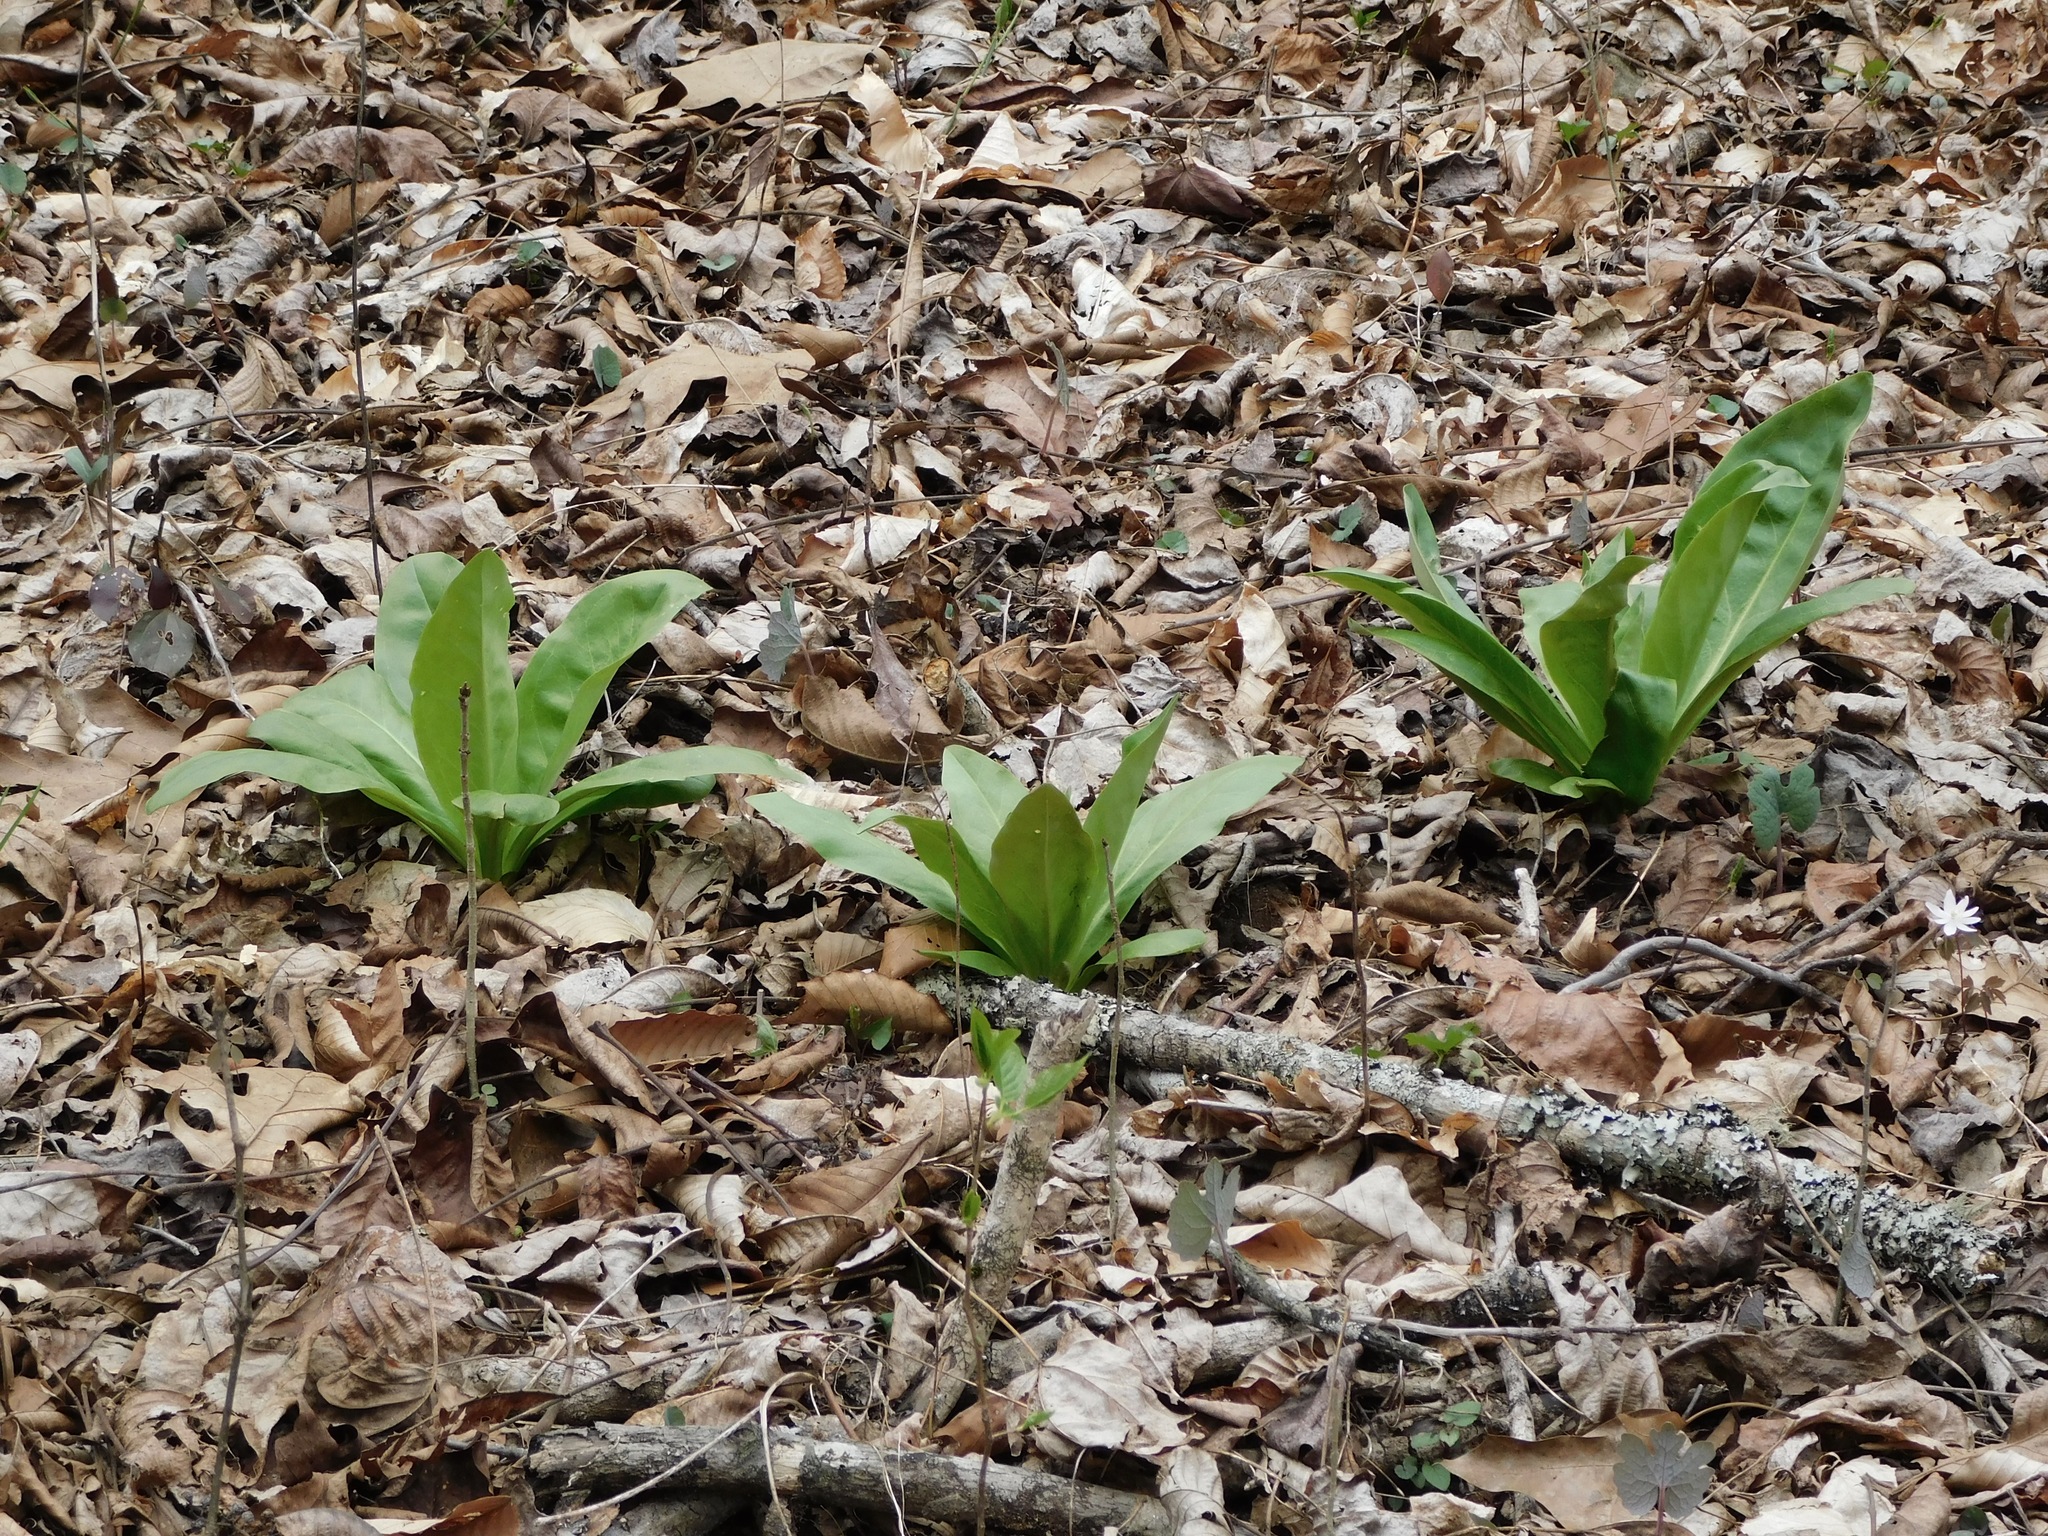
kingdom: Plantae
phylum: Tracheophyta
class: Magnoliopsida
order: Gentianales
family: Gentianaceae
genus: Frasera
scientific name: Frasera caroliniensis
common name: American columbo
